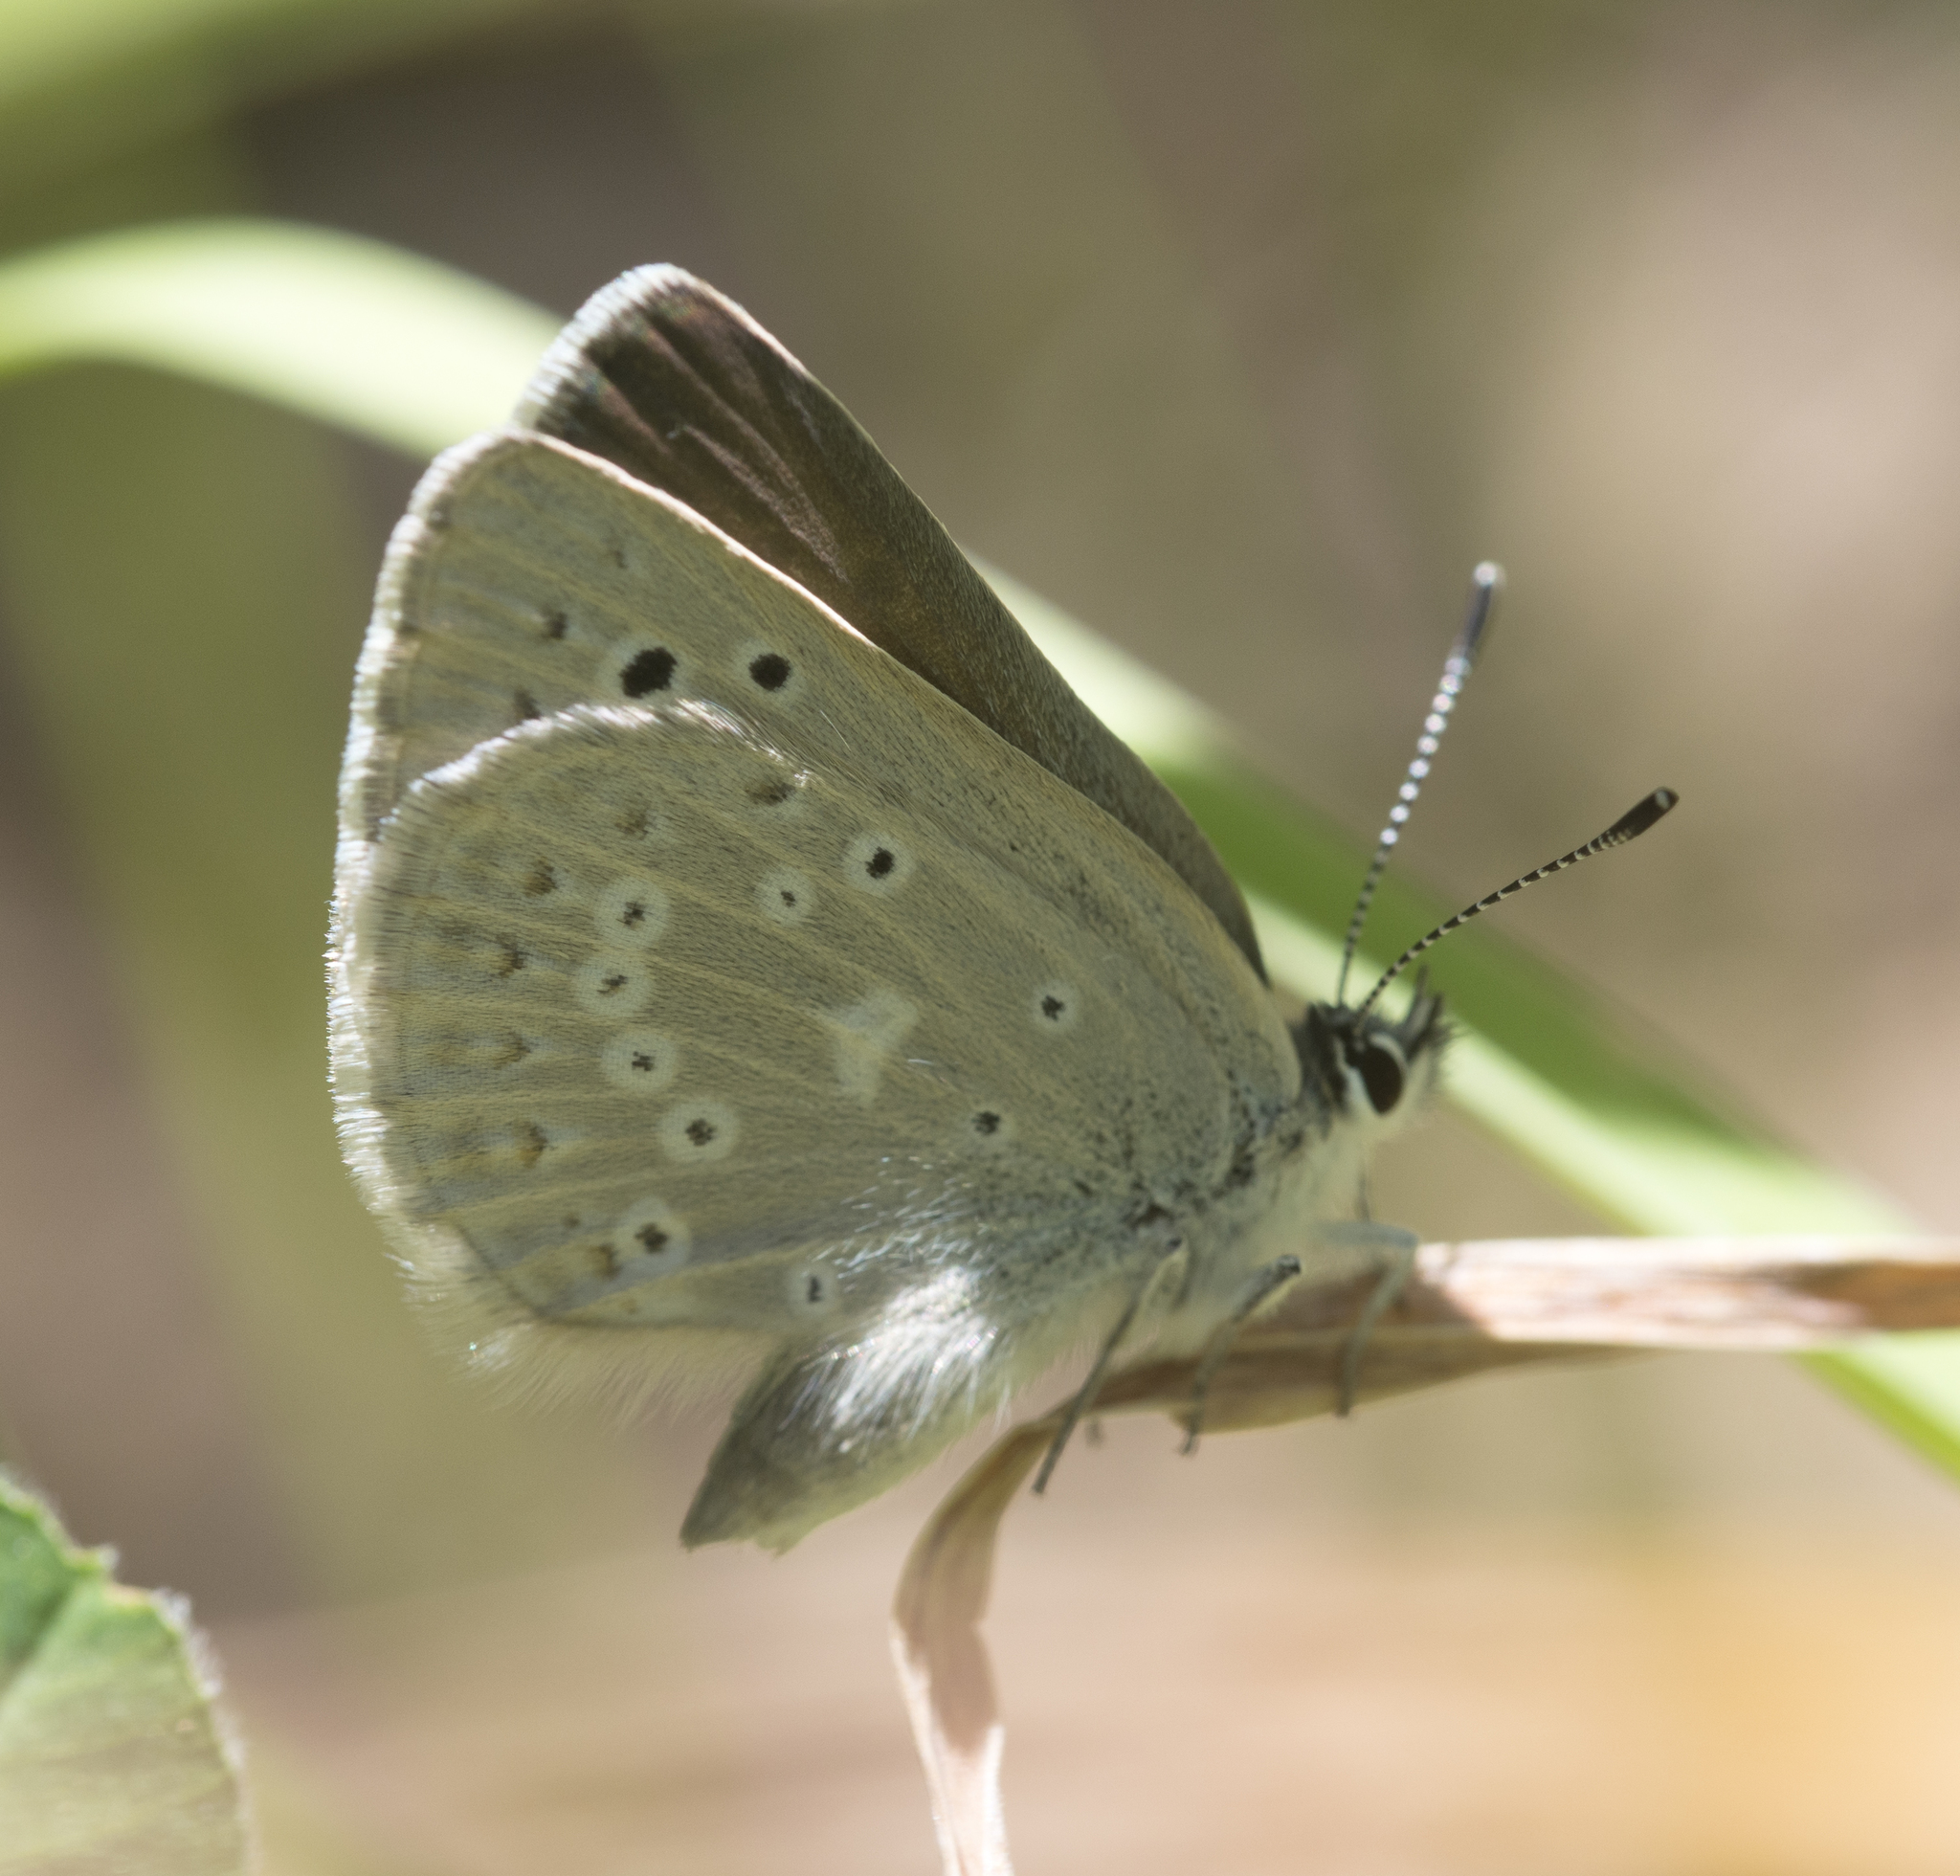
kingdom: Animalia
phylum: Arthropoda
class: Insecta
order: Lepidoptera
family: Lycaenidae
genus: Icaricia
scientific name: Icaricia icarioides
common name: Boisduval's blue
